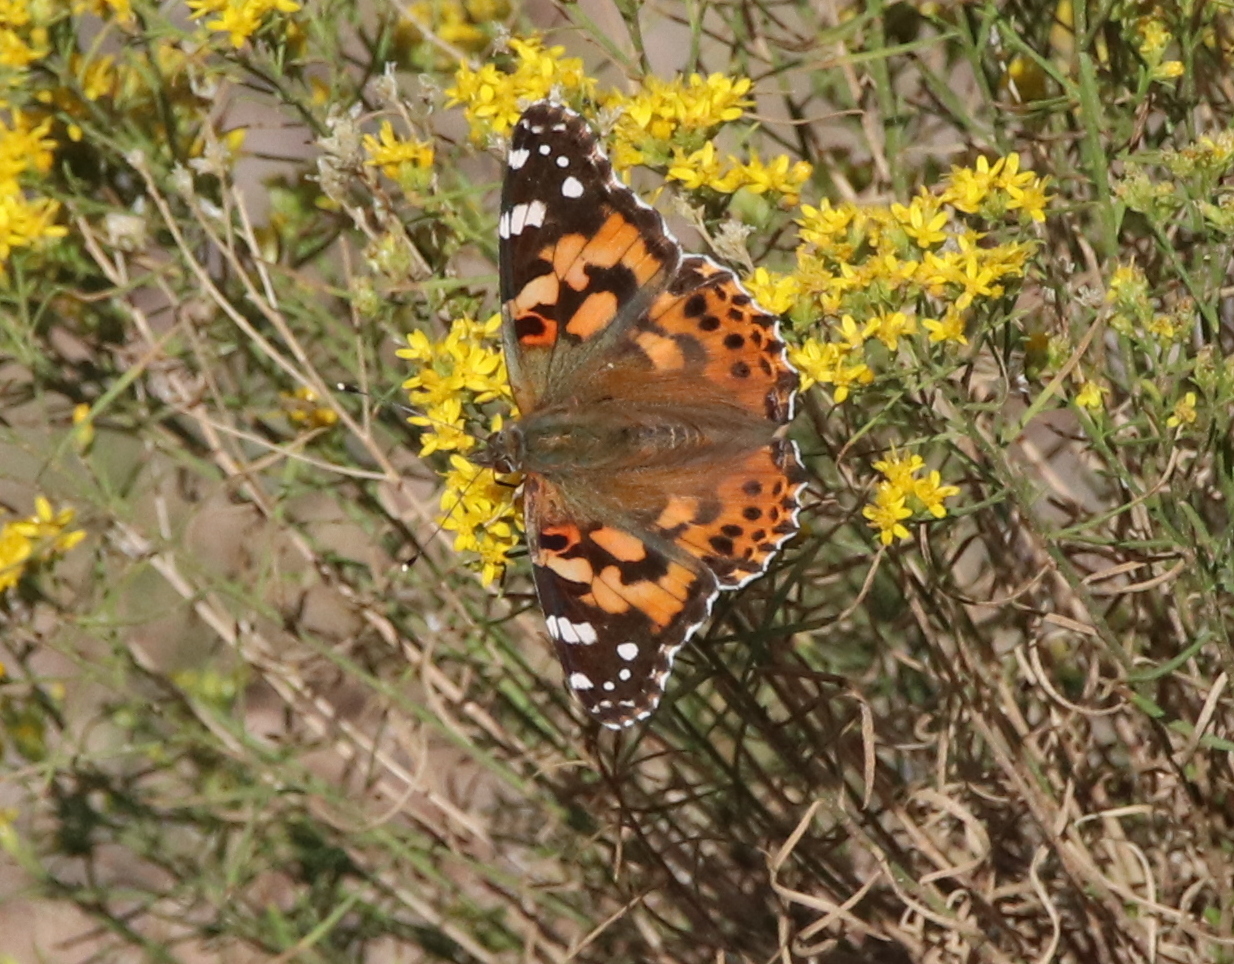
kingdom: Animalia
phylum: Arthropoda
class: Insecta
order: Lepidoptera
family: Nymphalidae
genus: Vanessa
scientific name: Vanessa cardui
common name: Painted lady
